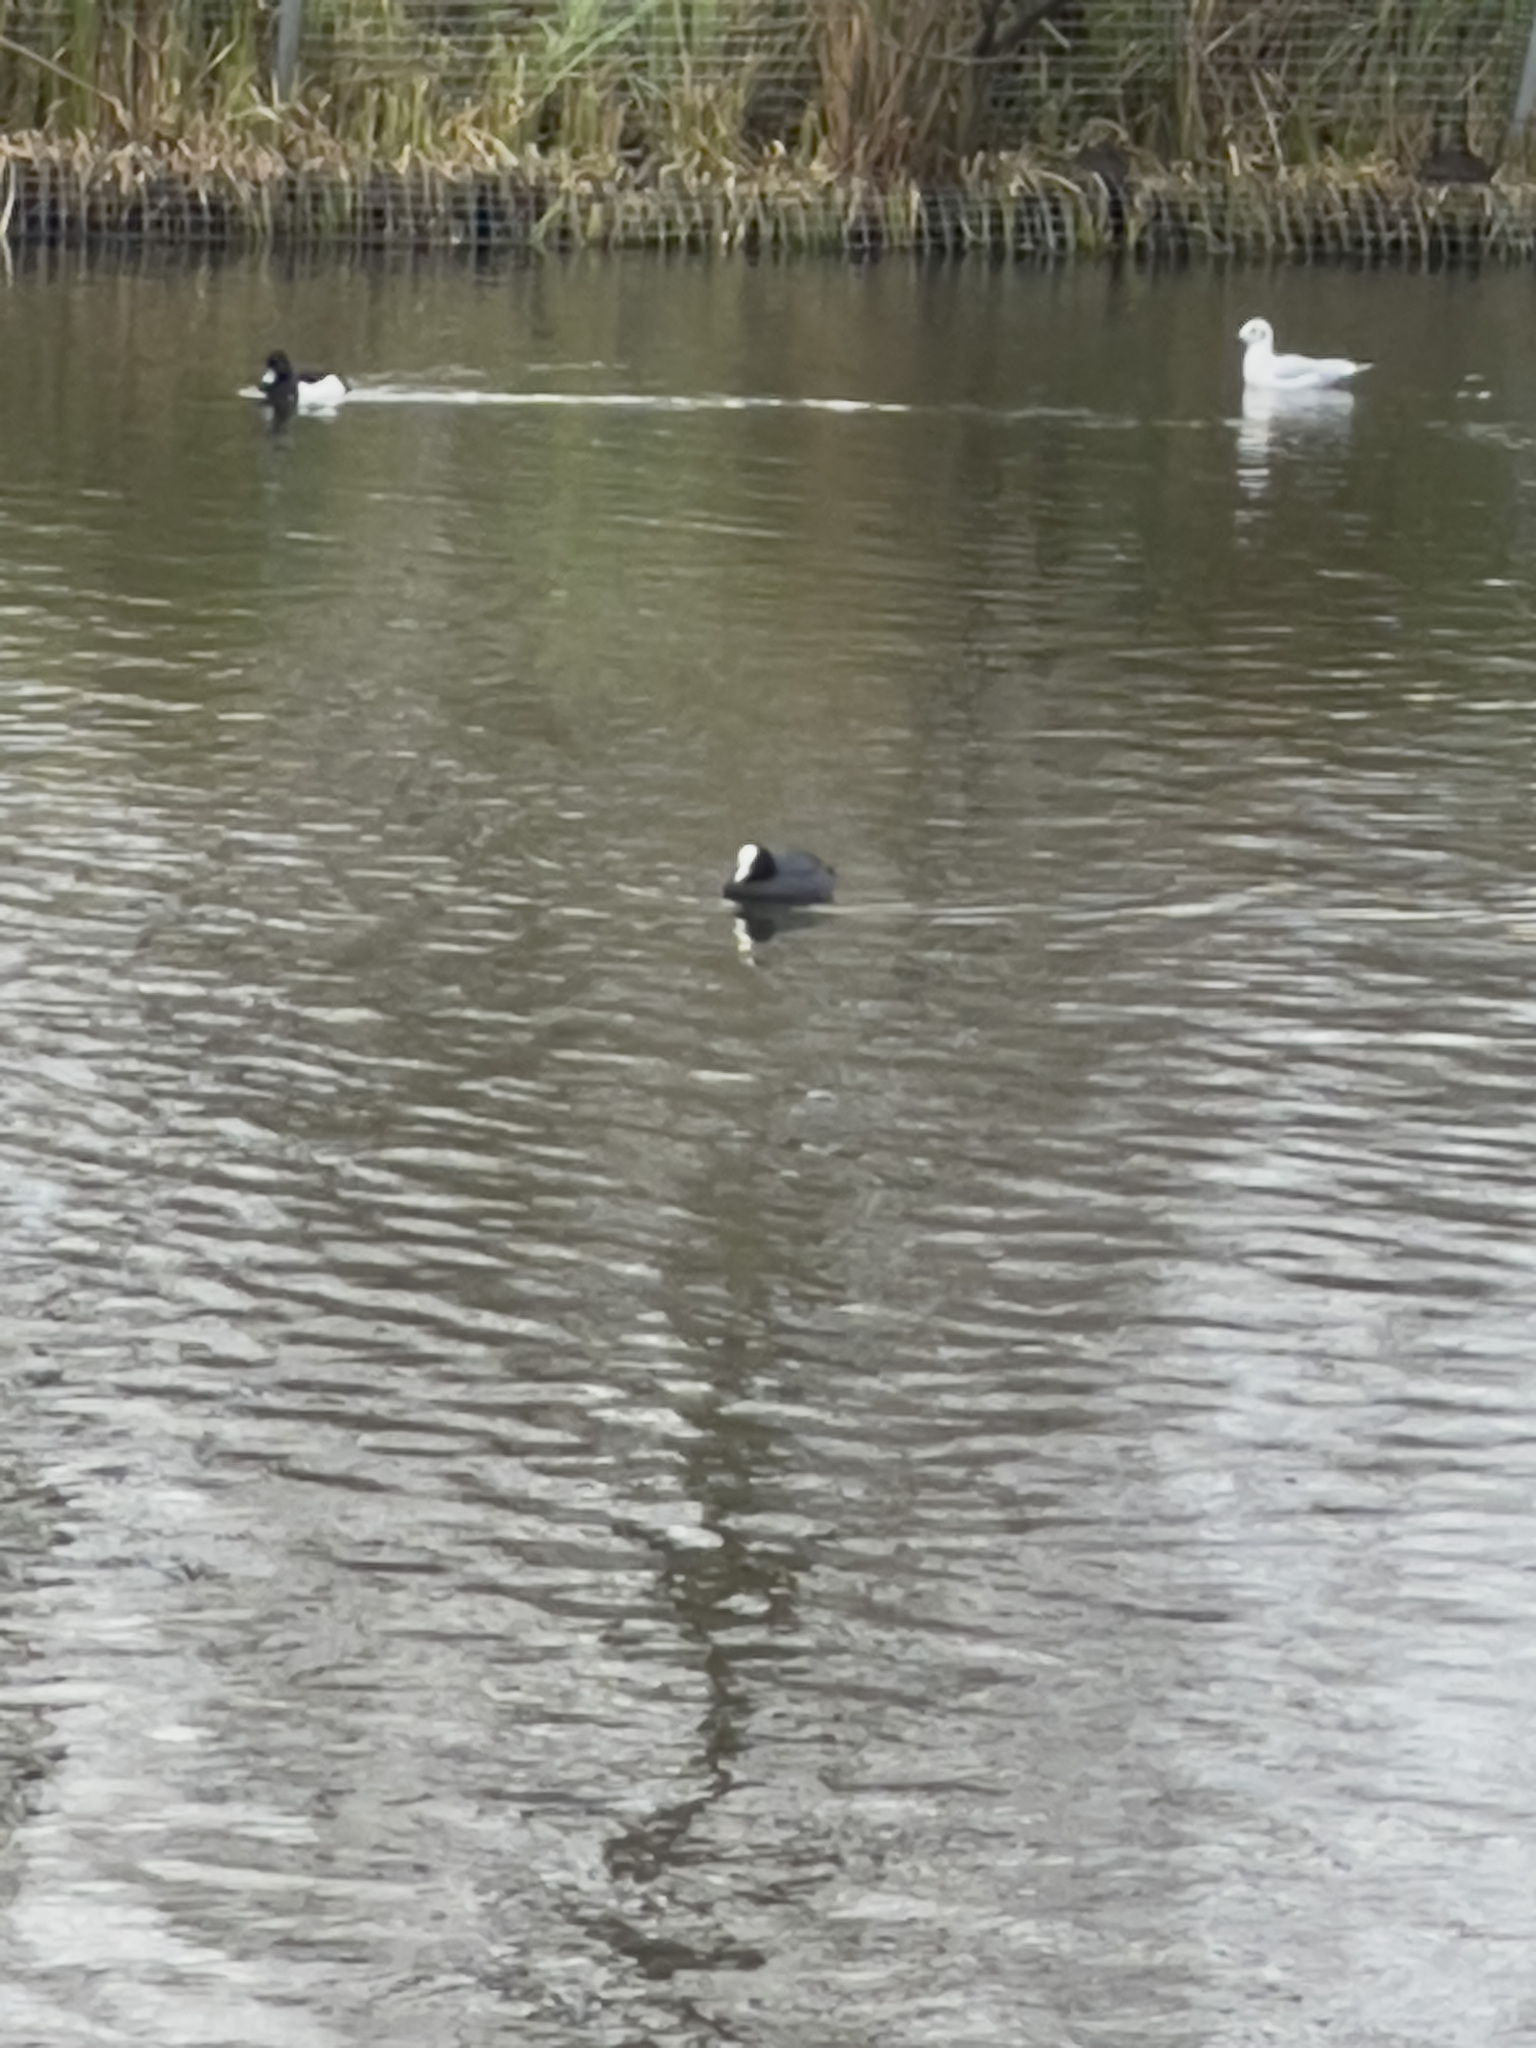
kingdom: Animalia
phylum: Chordata
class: Aves
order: Gruiformes
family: Rallidae
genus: Fulica
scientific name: Fulica atra
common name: Eurasian coot
